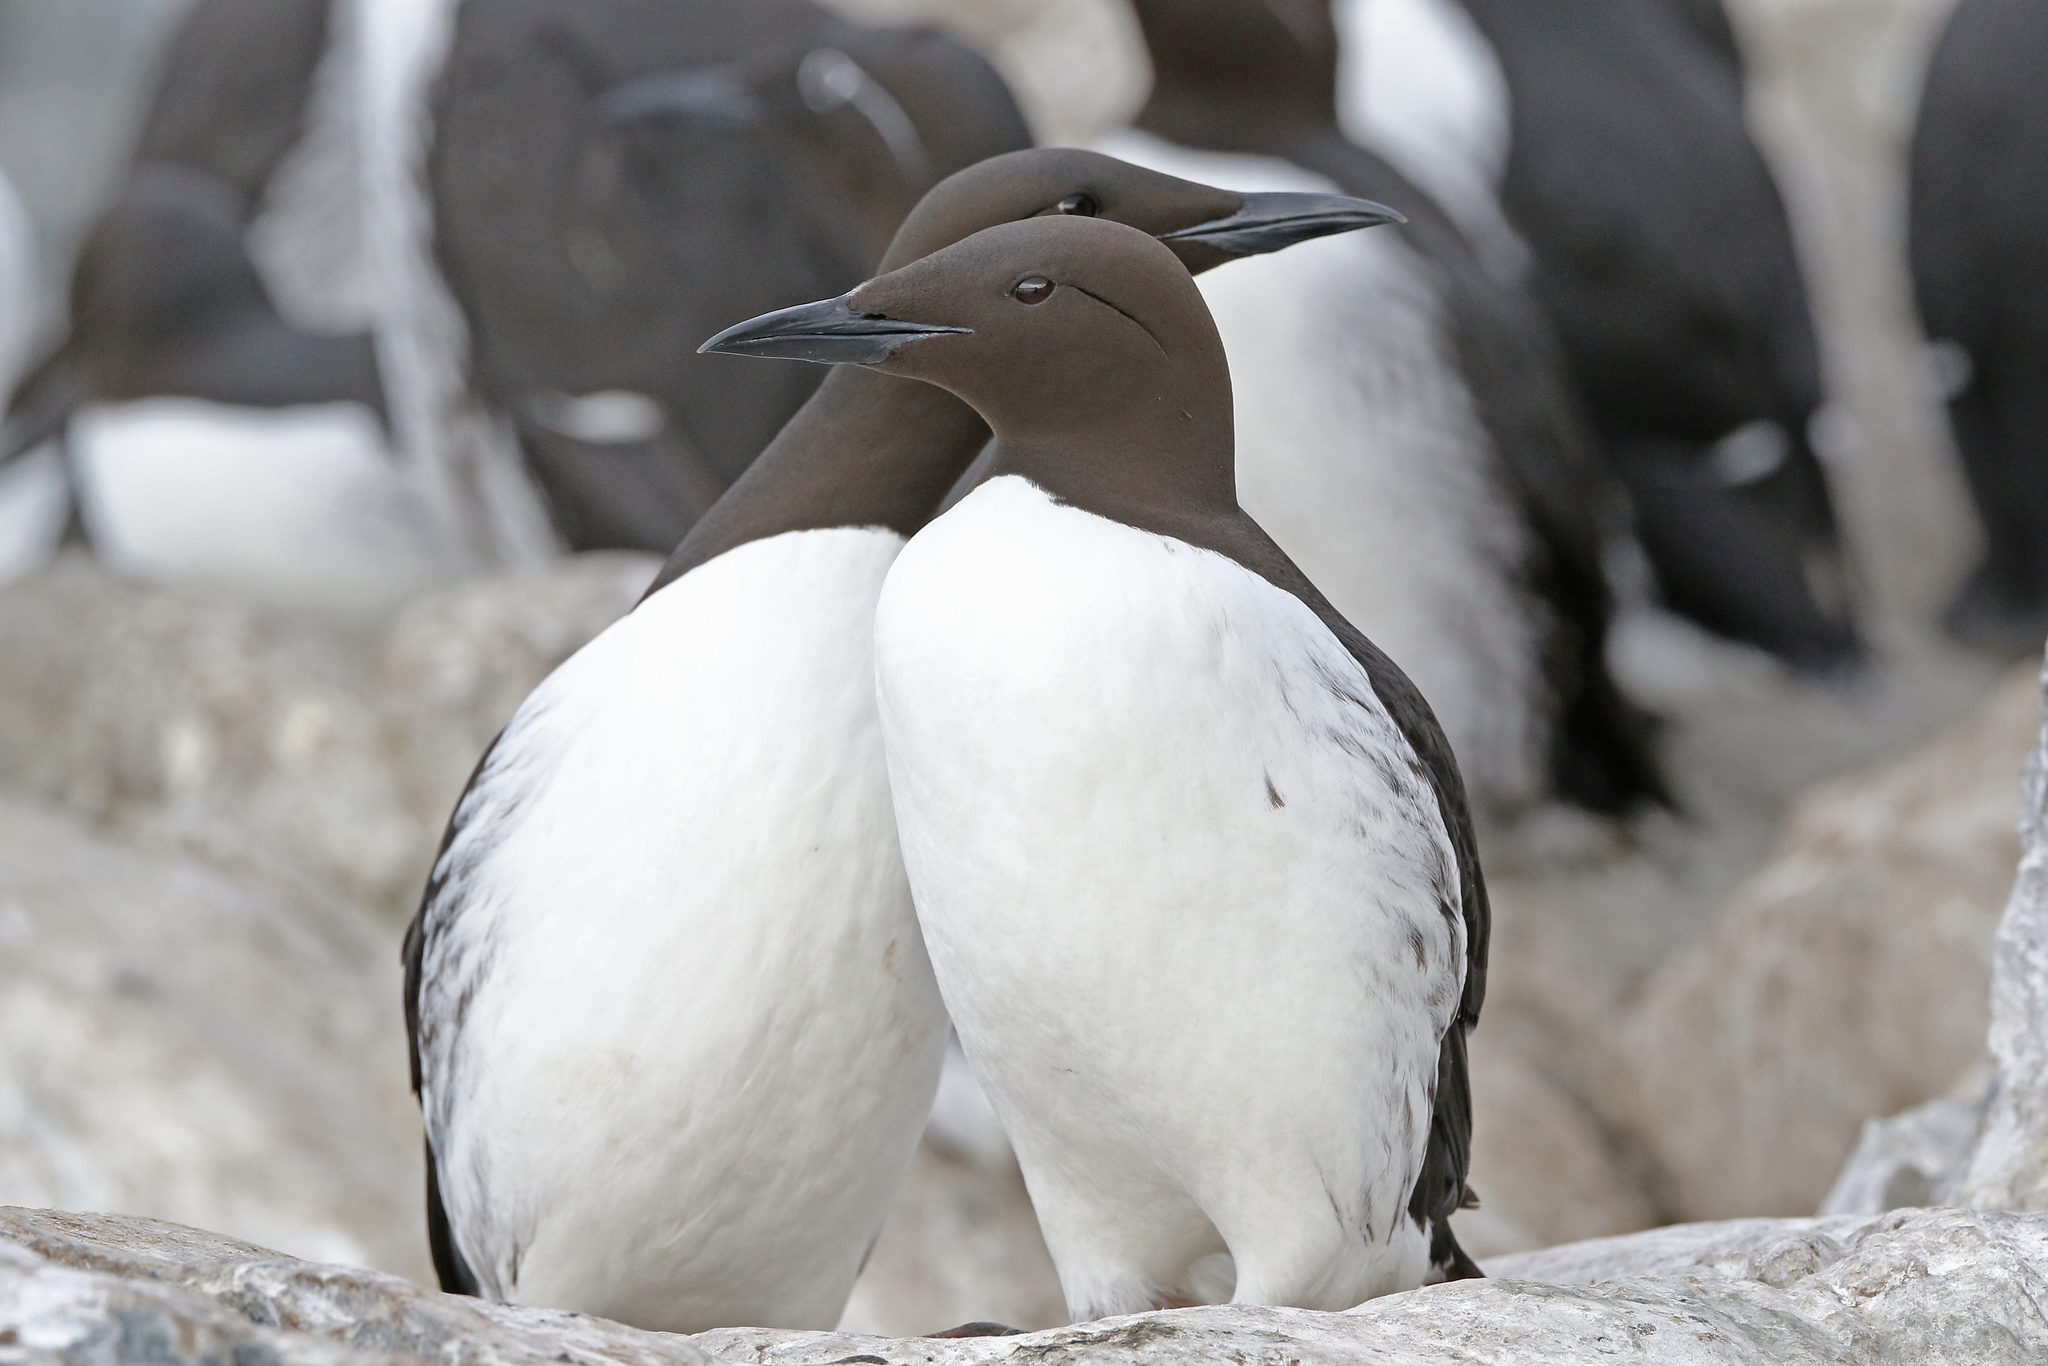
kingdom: Animalia
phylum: Chordata
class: Aves
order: Charadriiformes
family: Alcidae
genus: Uria
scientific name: Uria aalge
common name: Common murre
